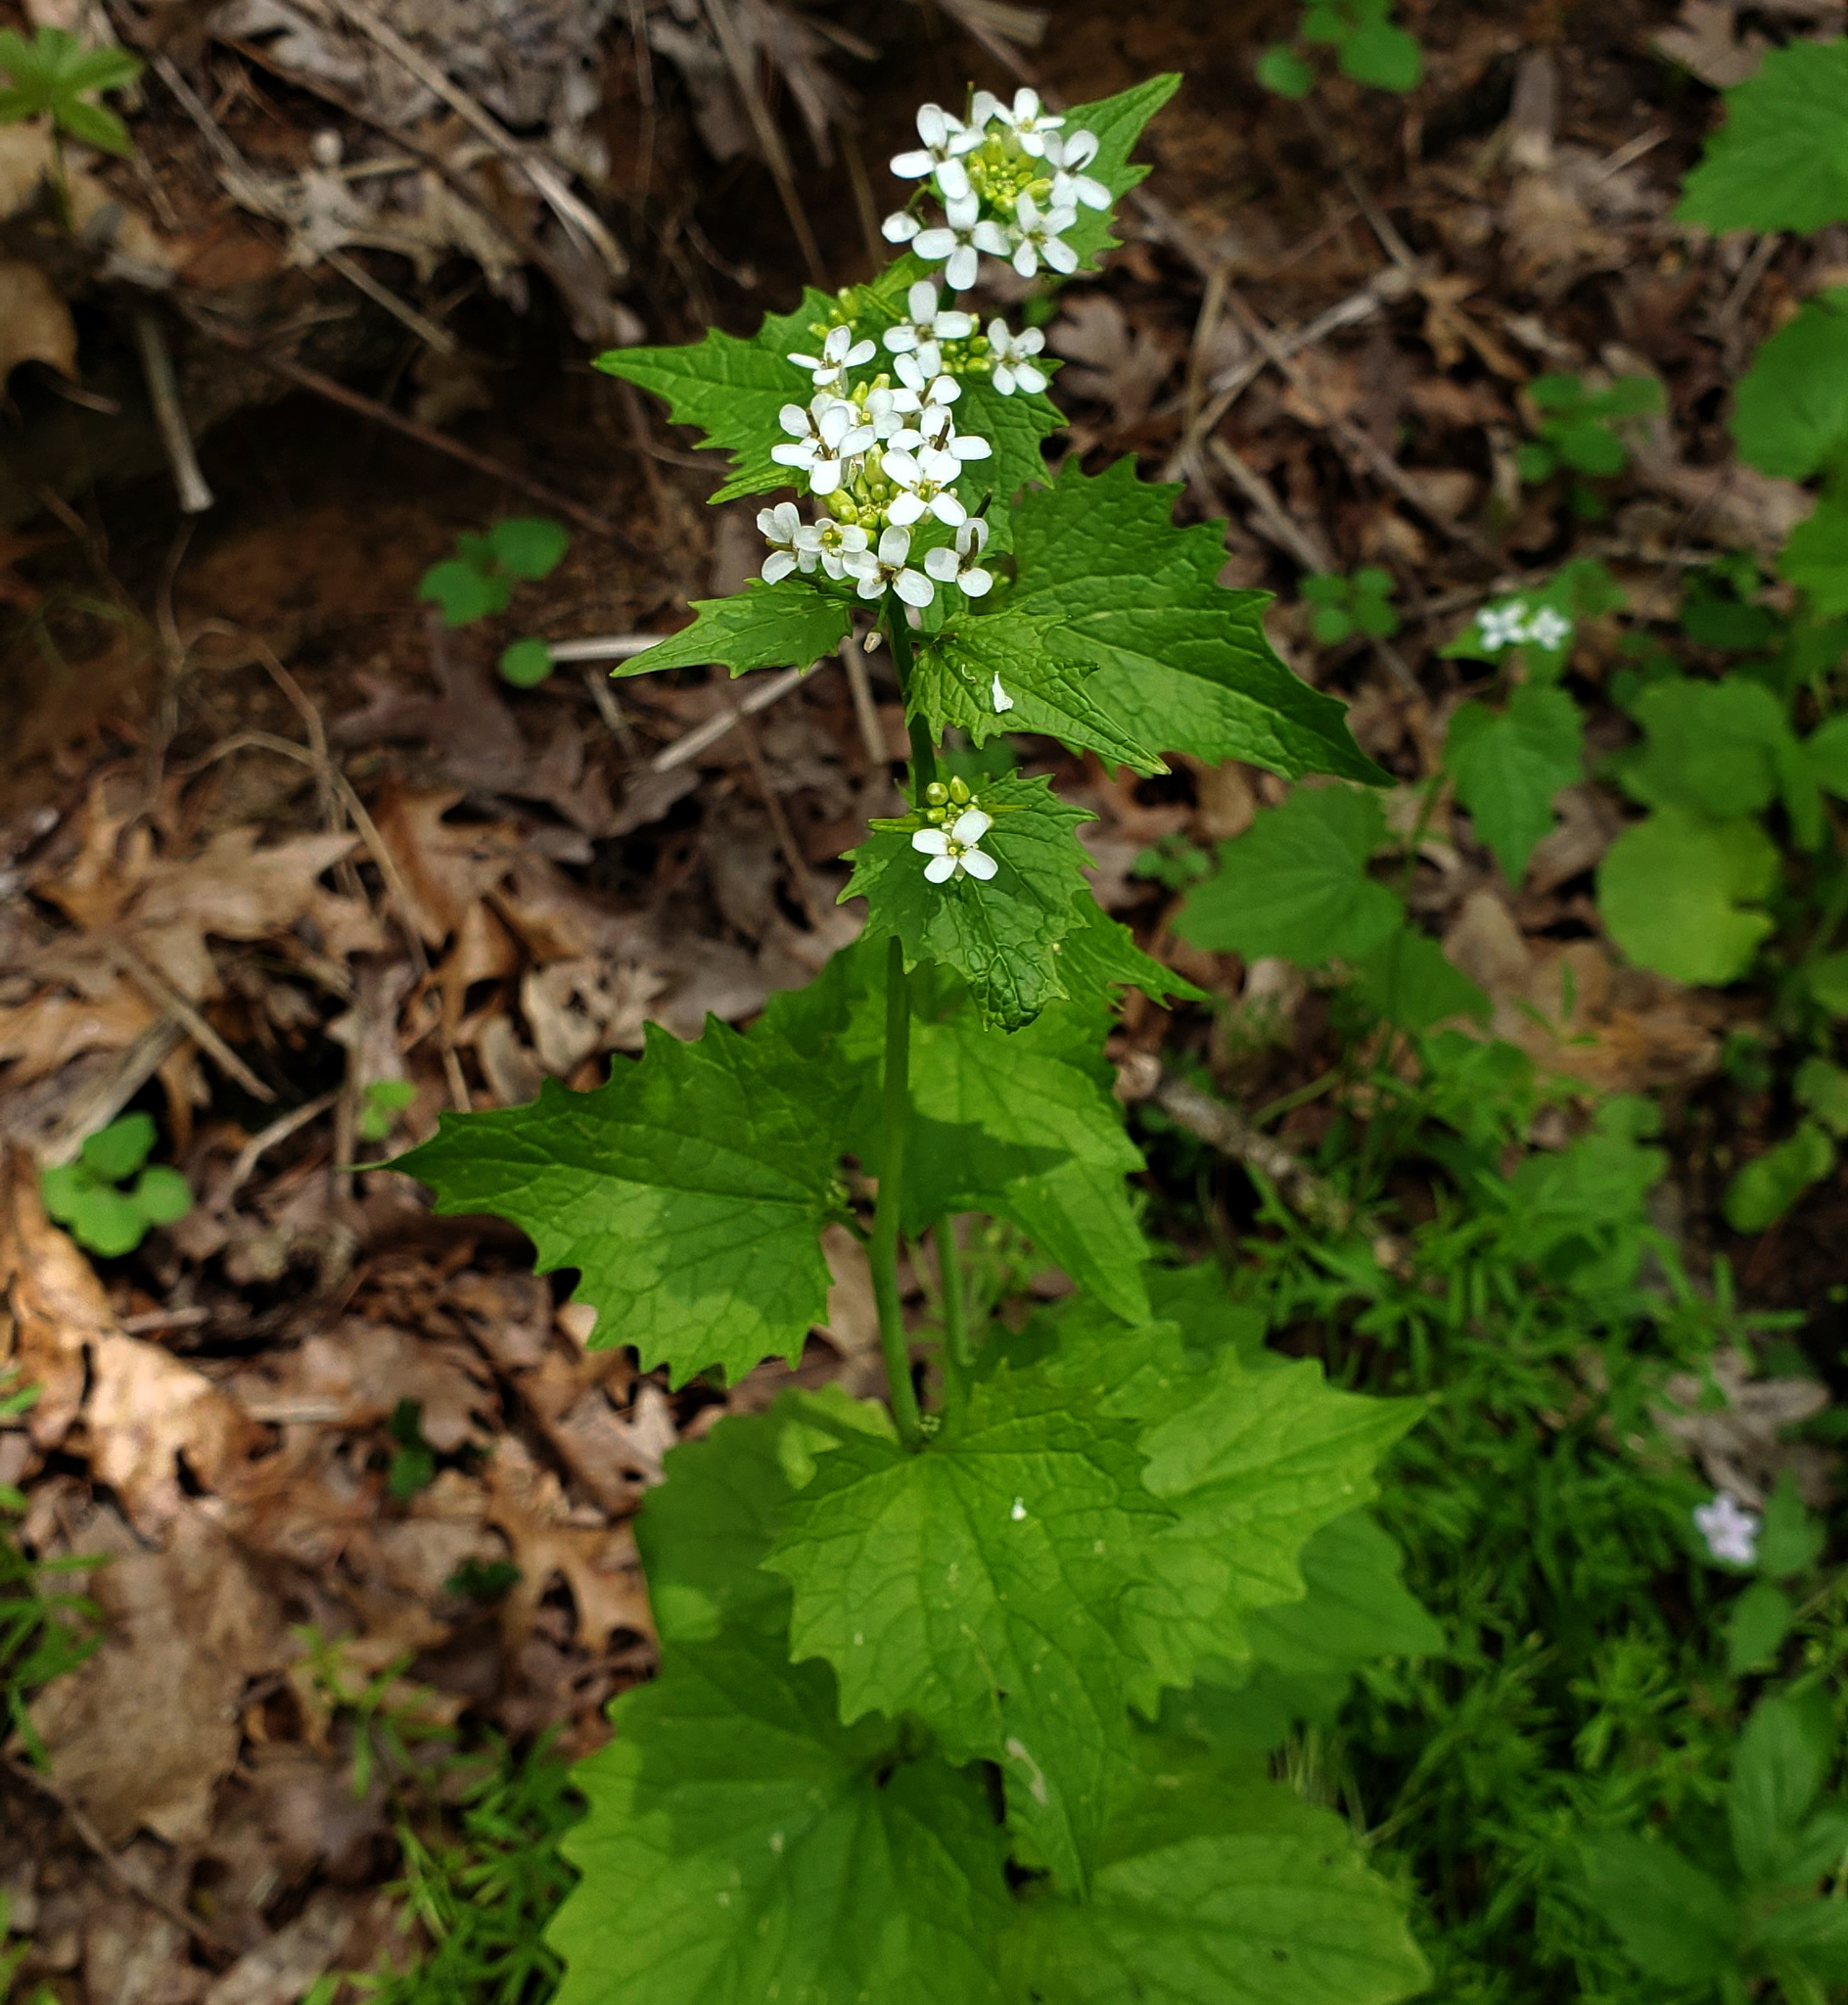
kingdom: Plantae
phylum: Tracheophyta
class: Magnoliopsida
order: Brassicales
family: Brassicaceae
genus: Alliaria
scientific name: Alliaria petiolata
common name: Garlic mustard
